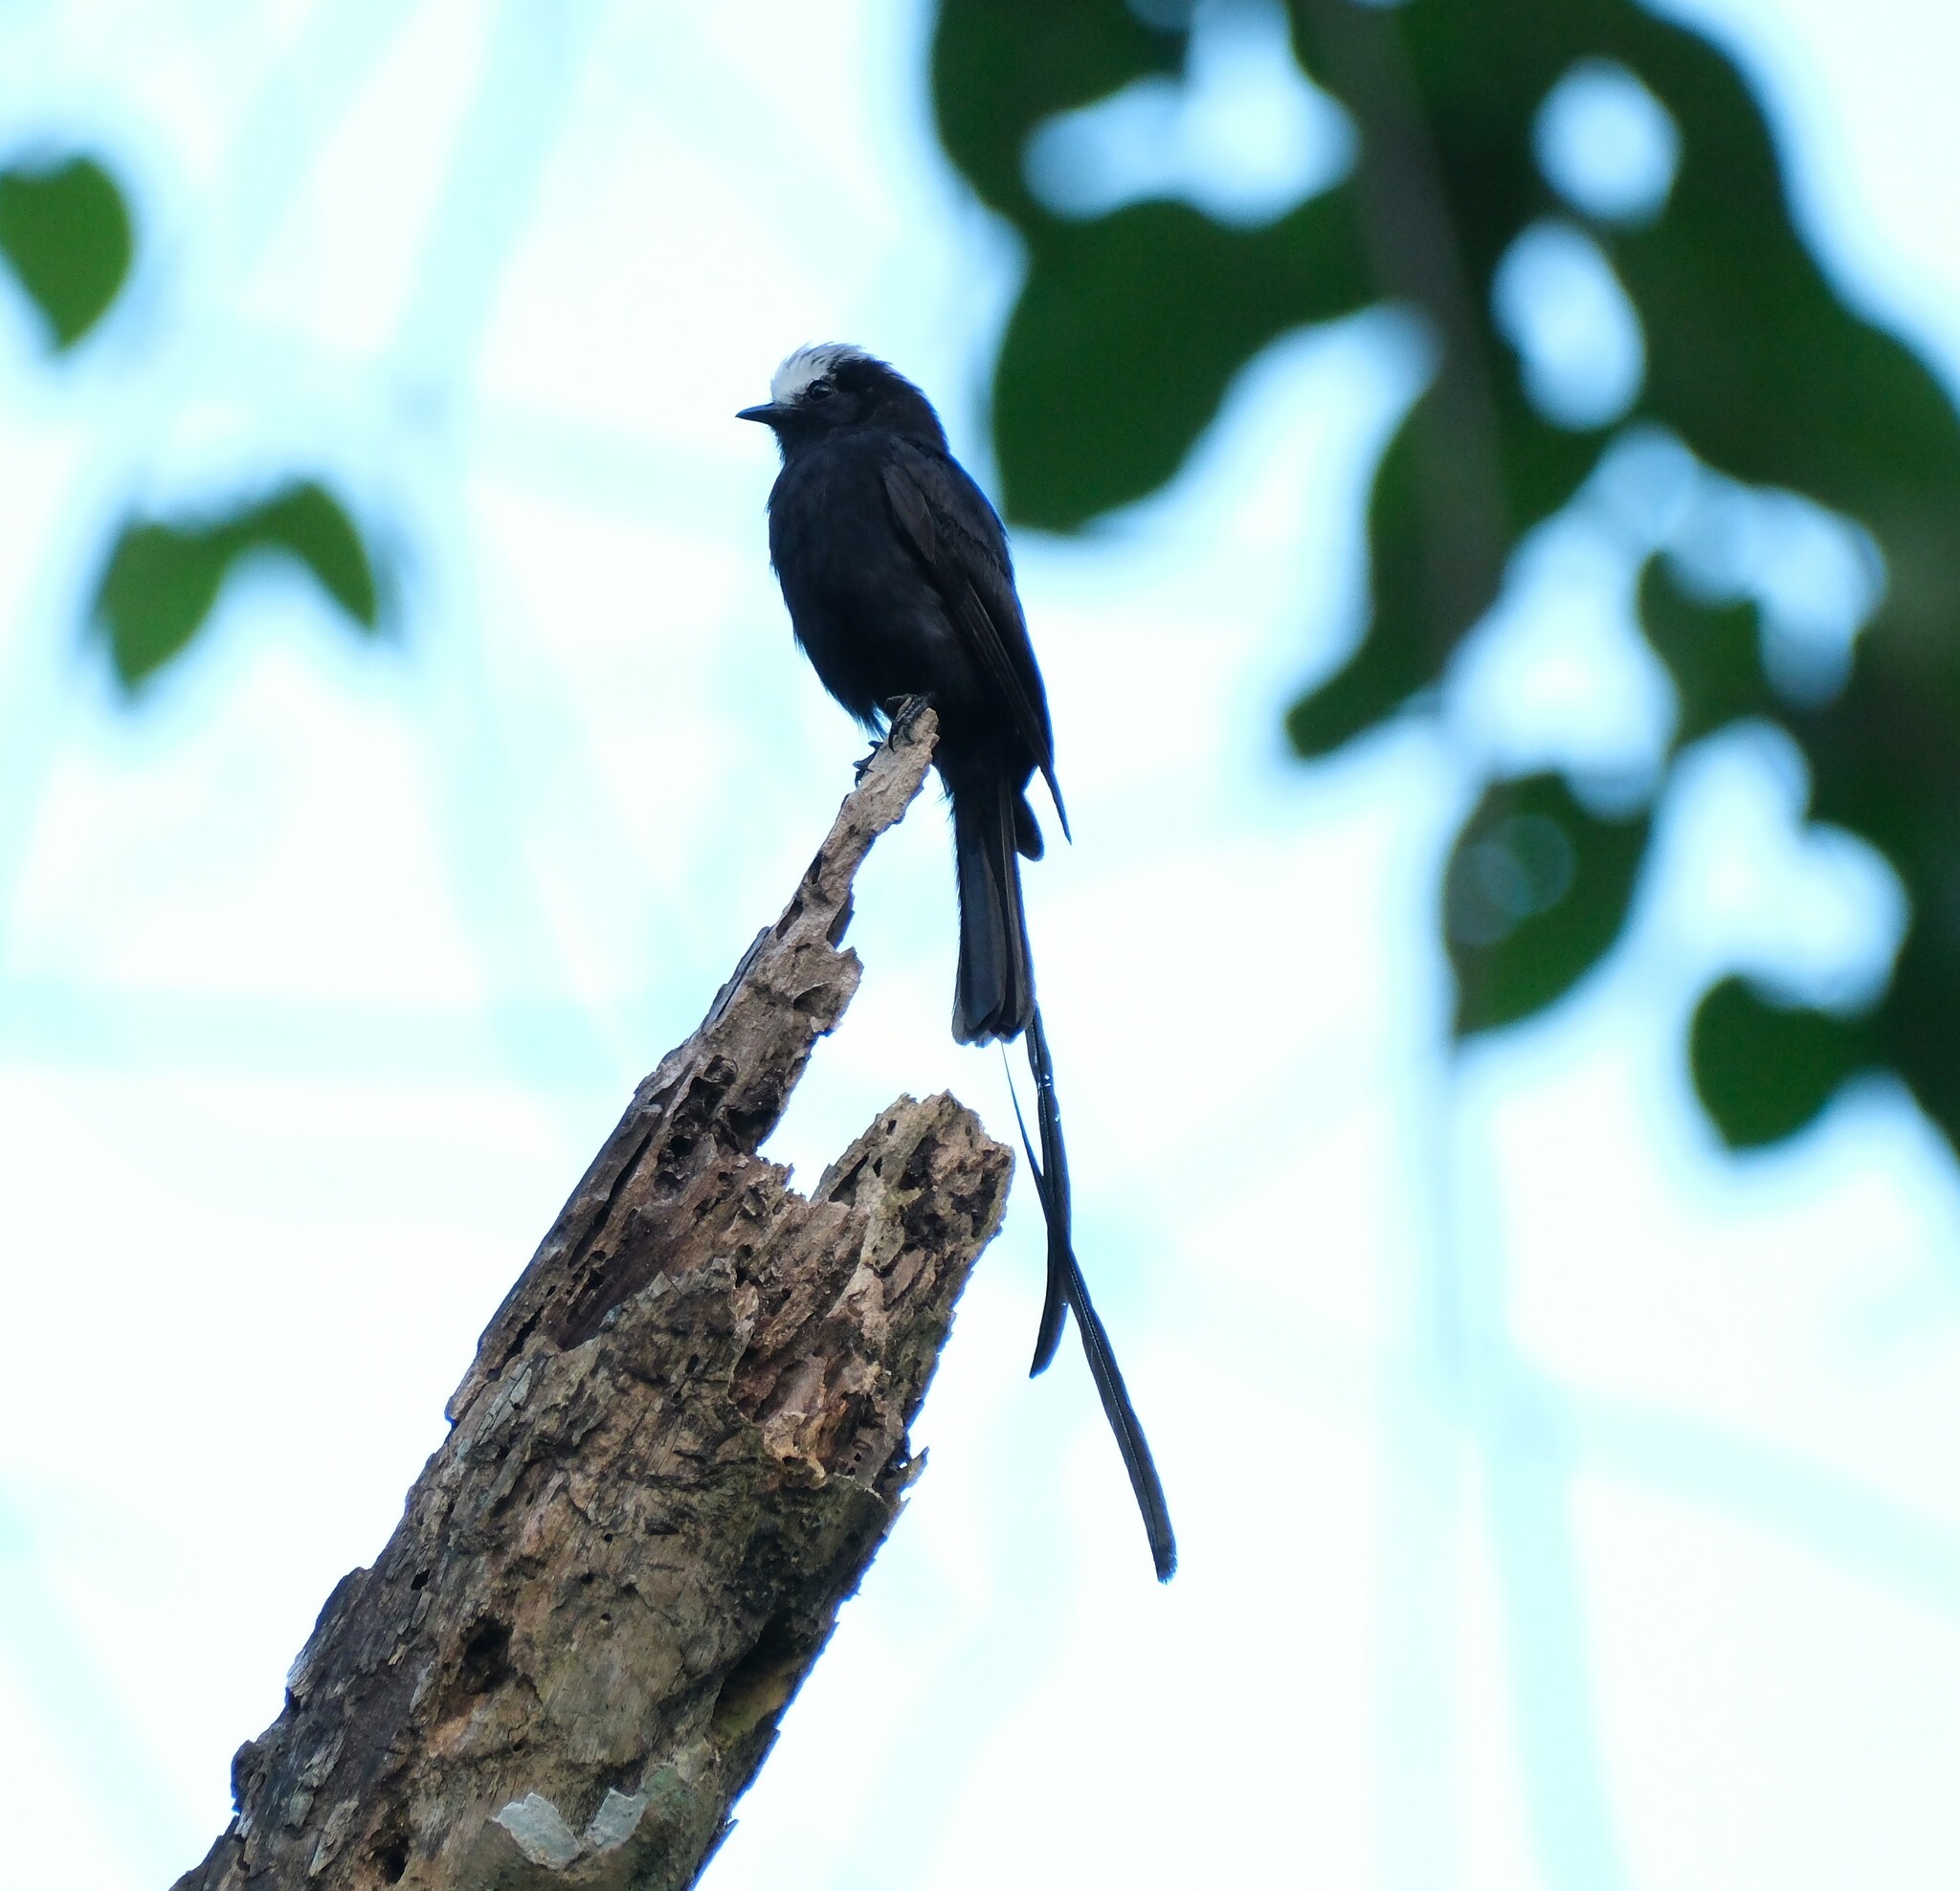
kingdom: Animalia
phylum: Chordata
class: Aves
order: Passeriformes
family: Tyrannidae
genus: Colonia
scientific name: Colonia colonus
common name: Long-tailed tyrant
